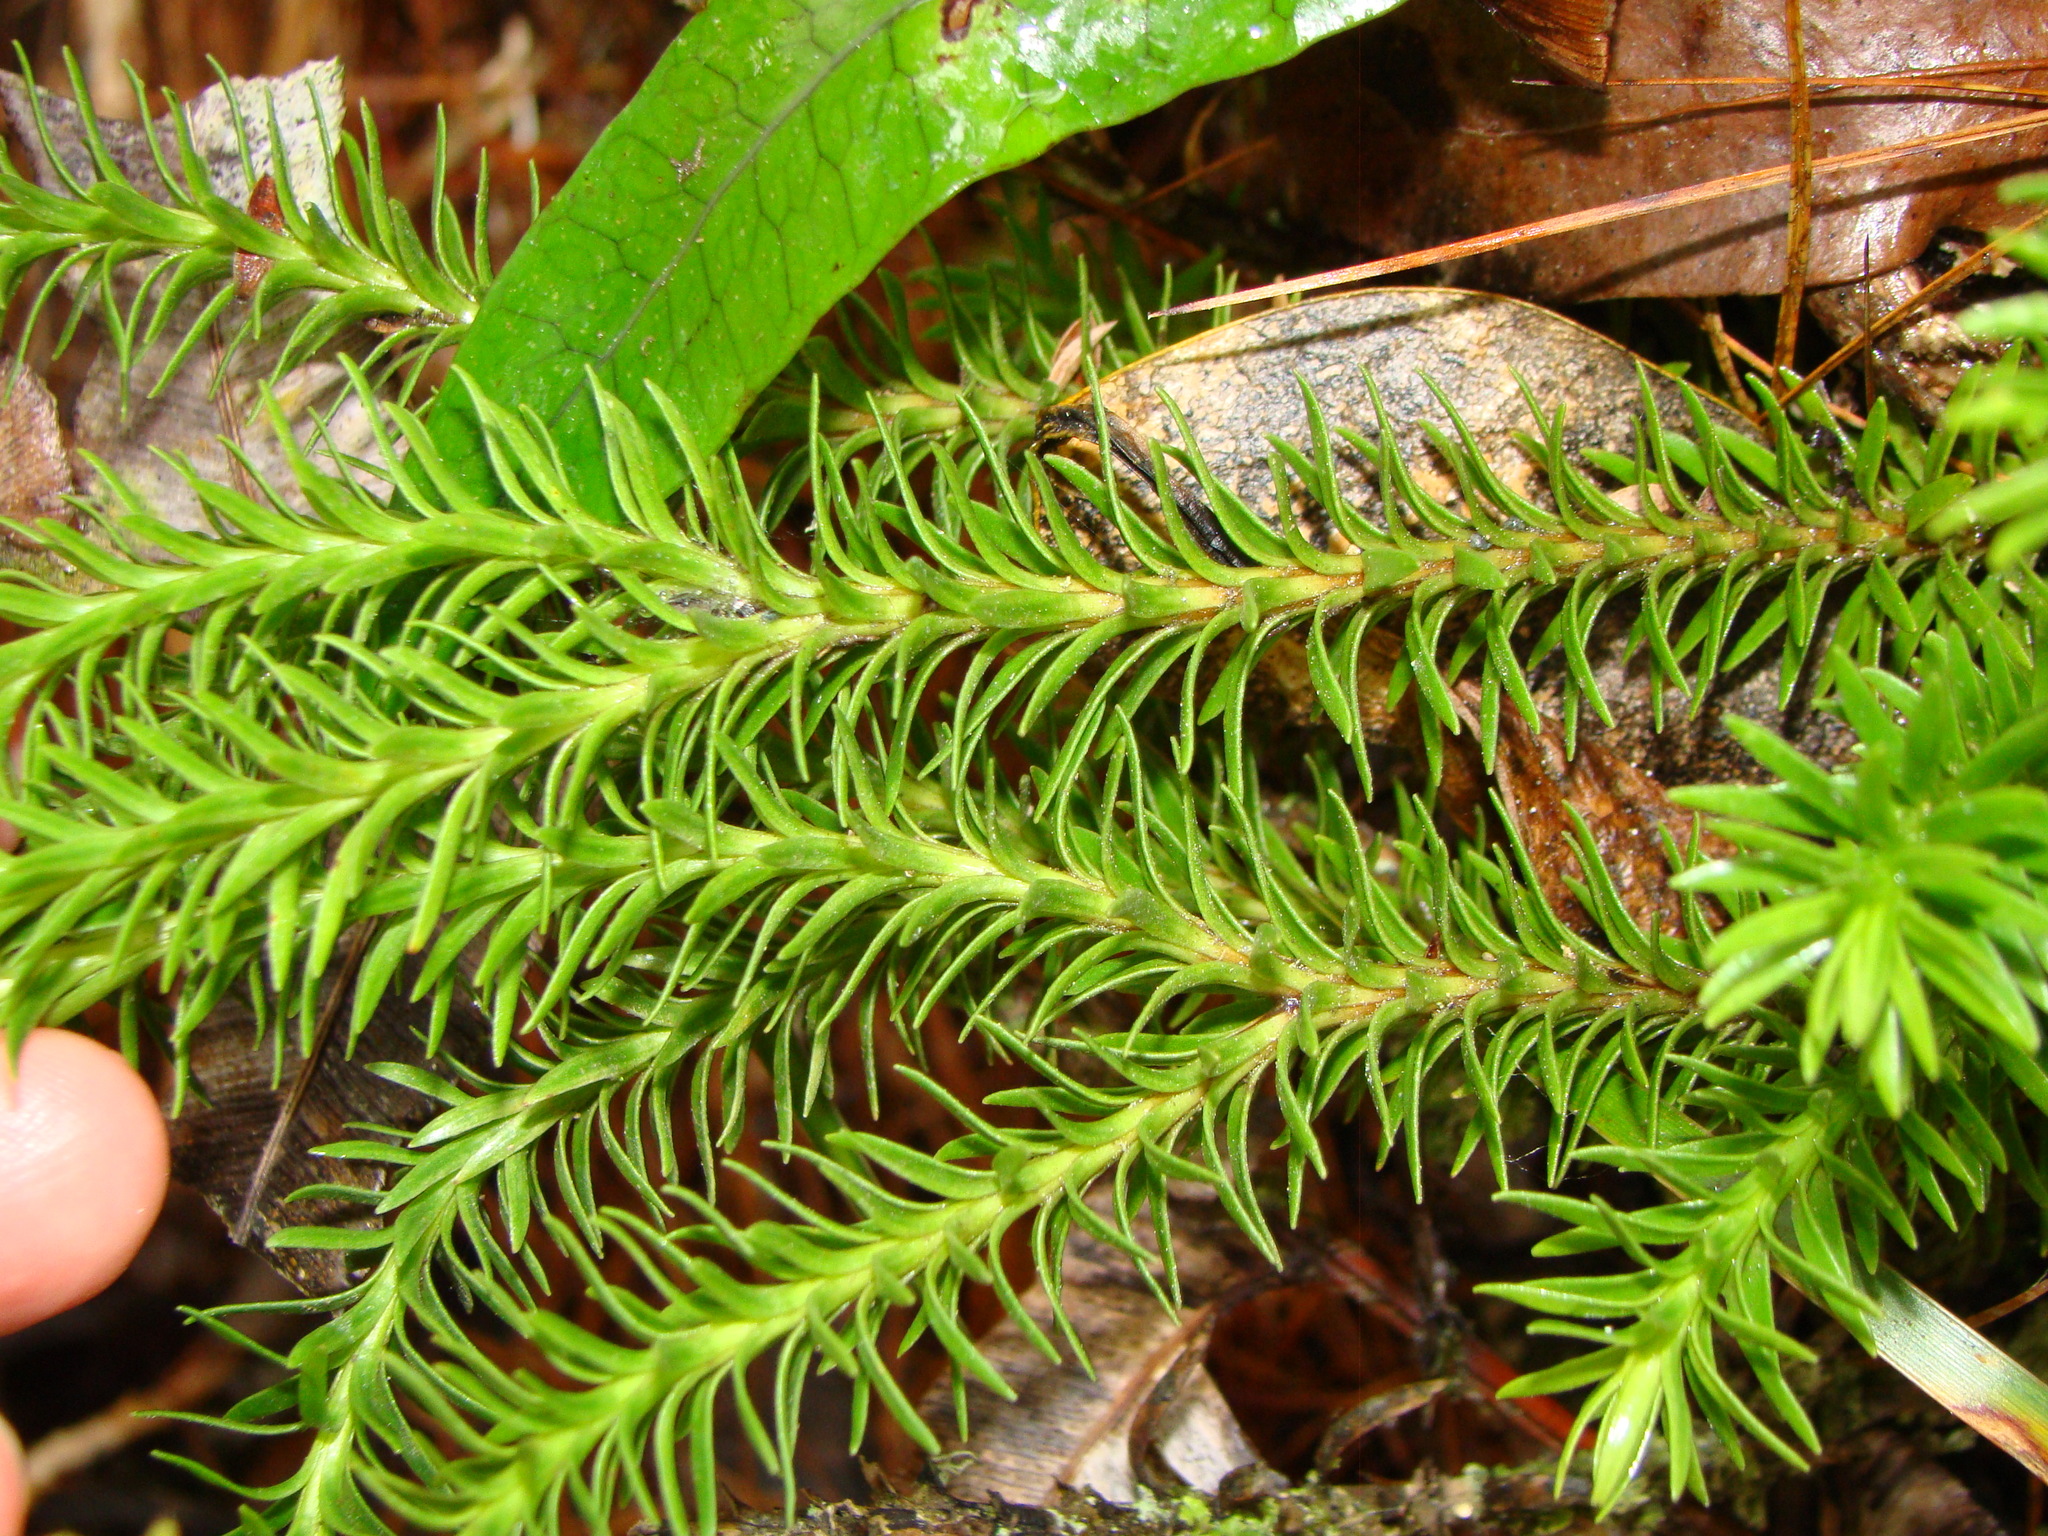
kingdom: Plantae
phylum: Tracheophyta
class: Lycopodiopsida
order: Lycopodiales
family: Lycopodiaceae
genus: Huperzia
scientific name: Huperzia australiana
